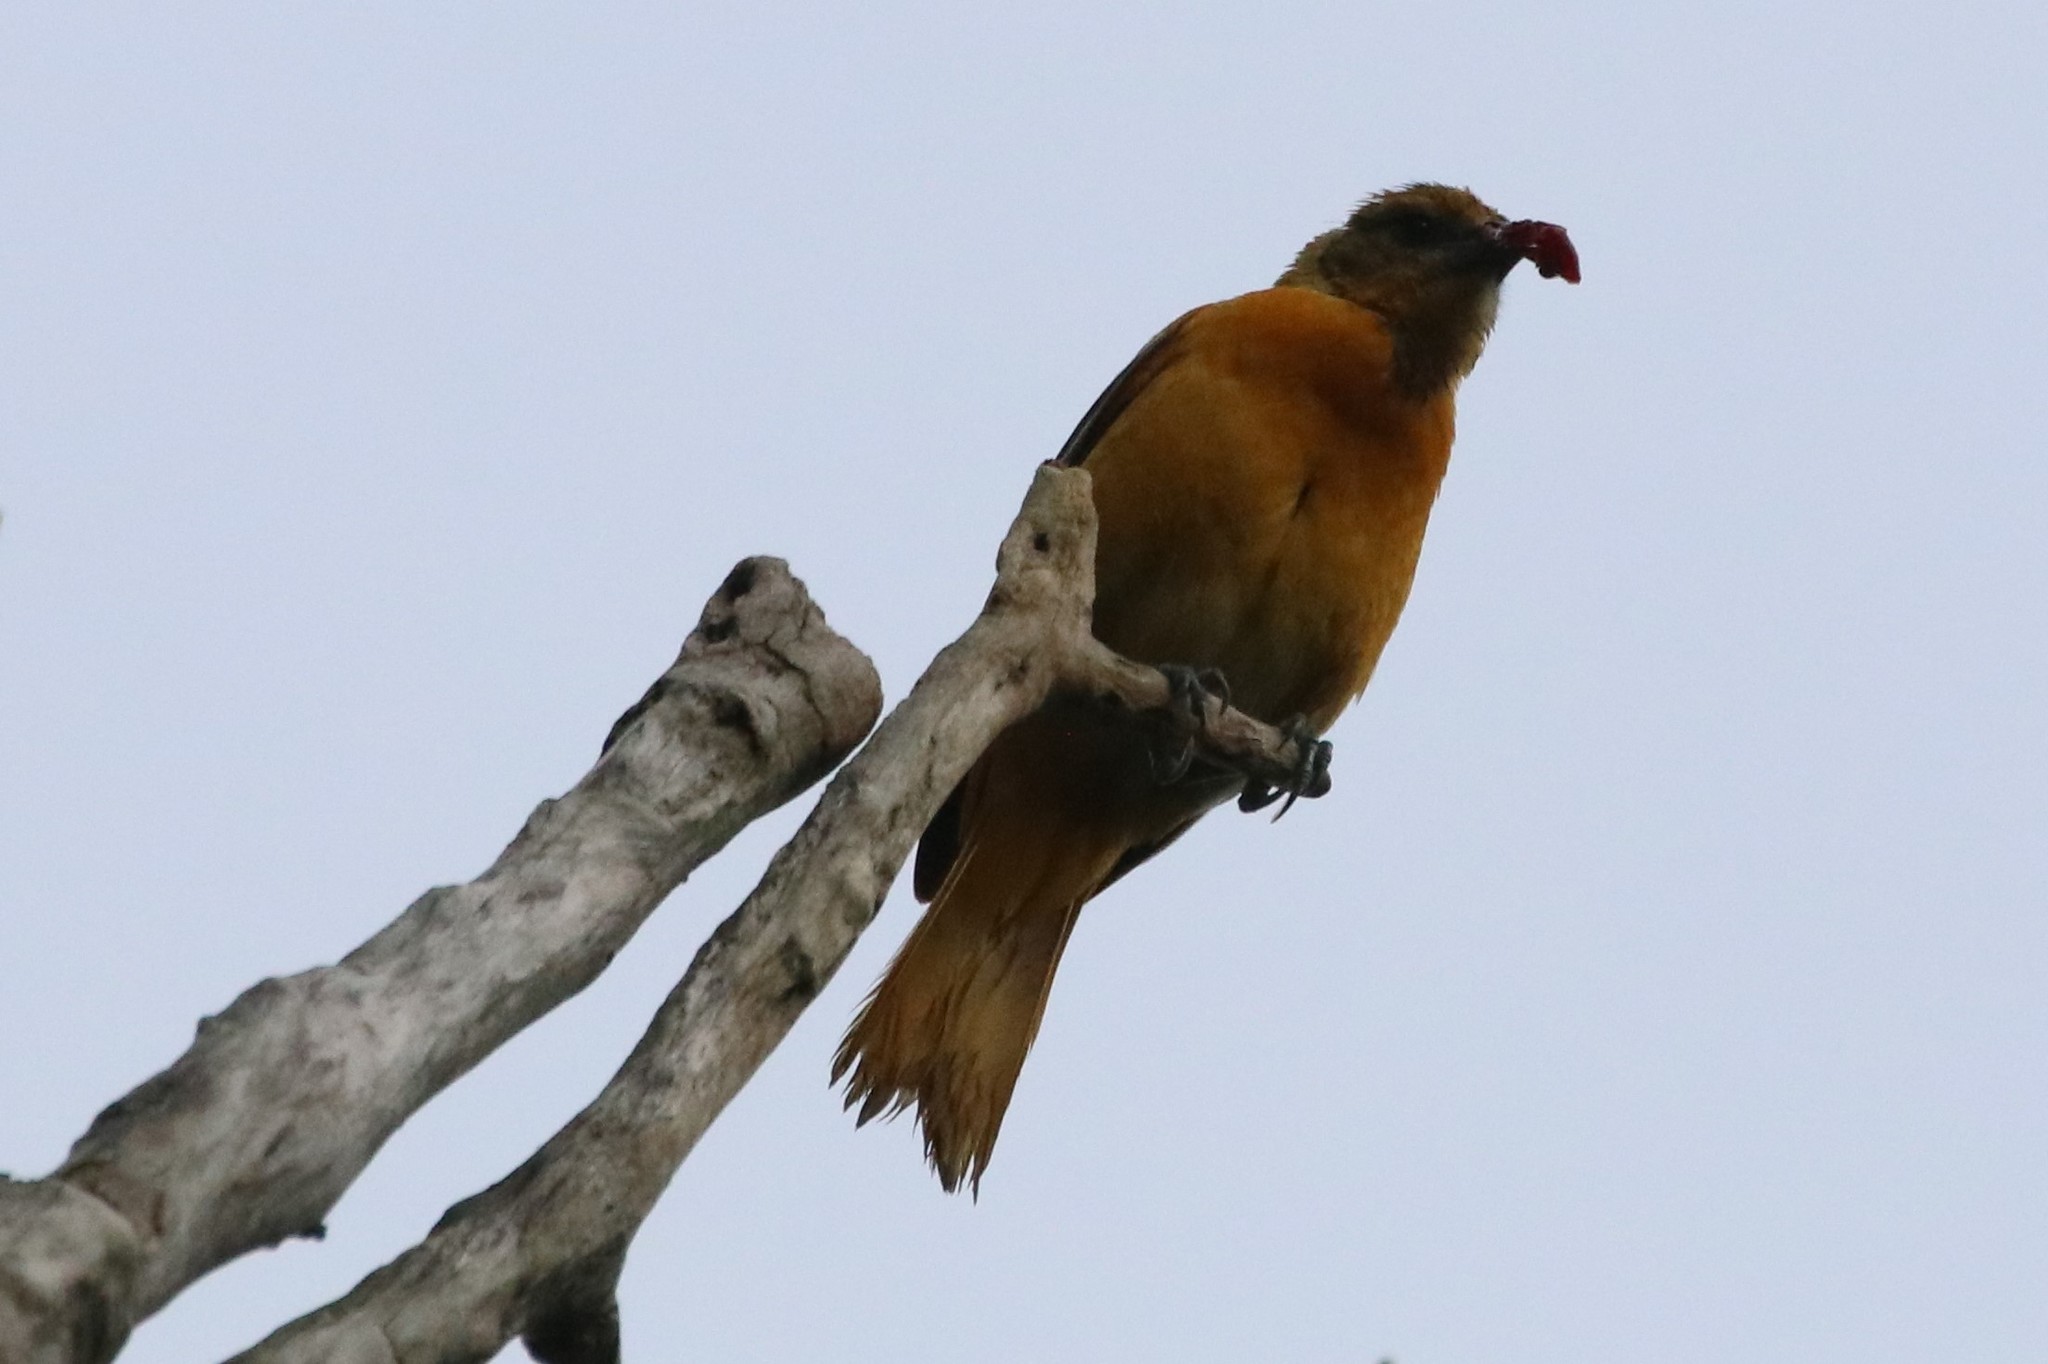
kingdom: Animalia
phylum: Chordata
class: Aves
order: Passeriformes
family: Icteridae
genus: Icterus
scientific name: Icterus galbula
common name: Baltimore oriole
